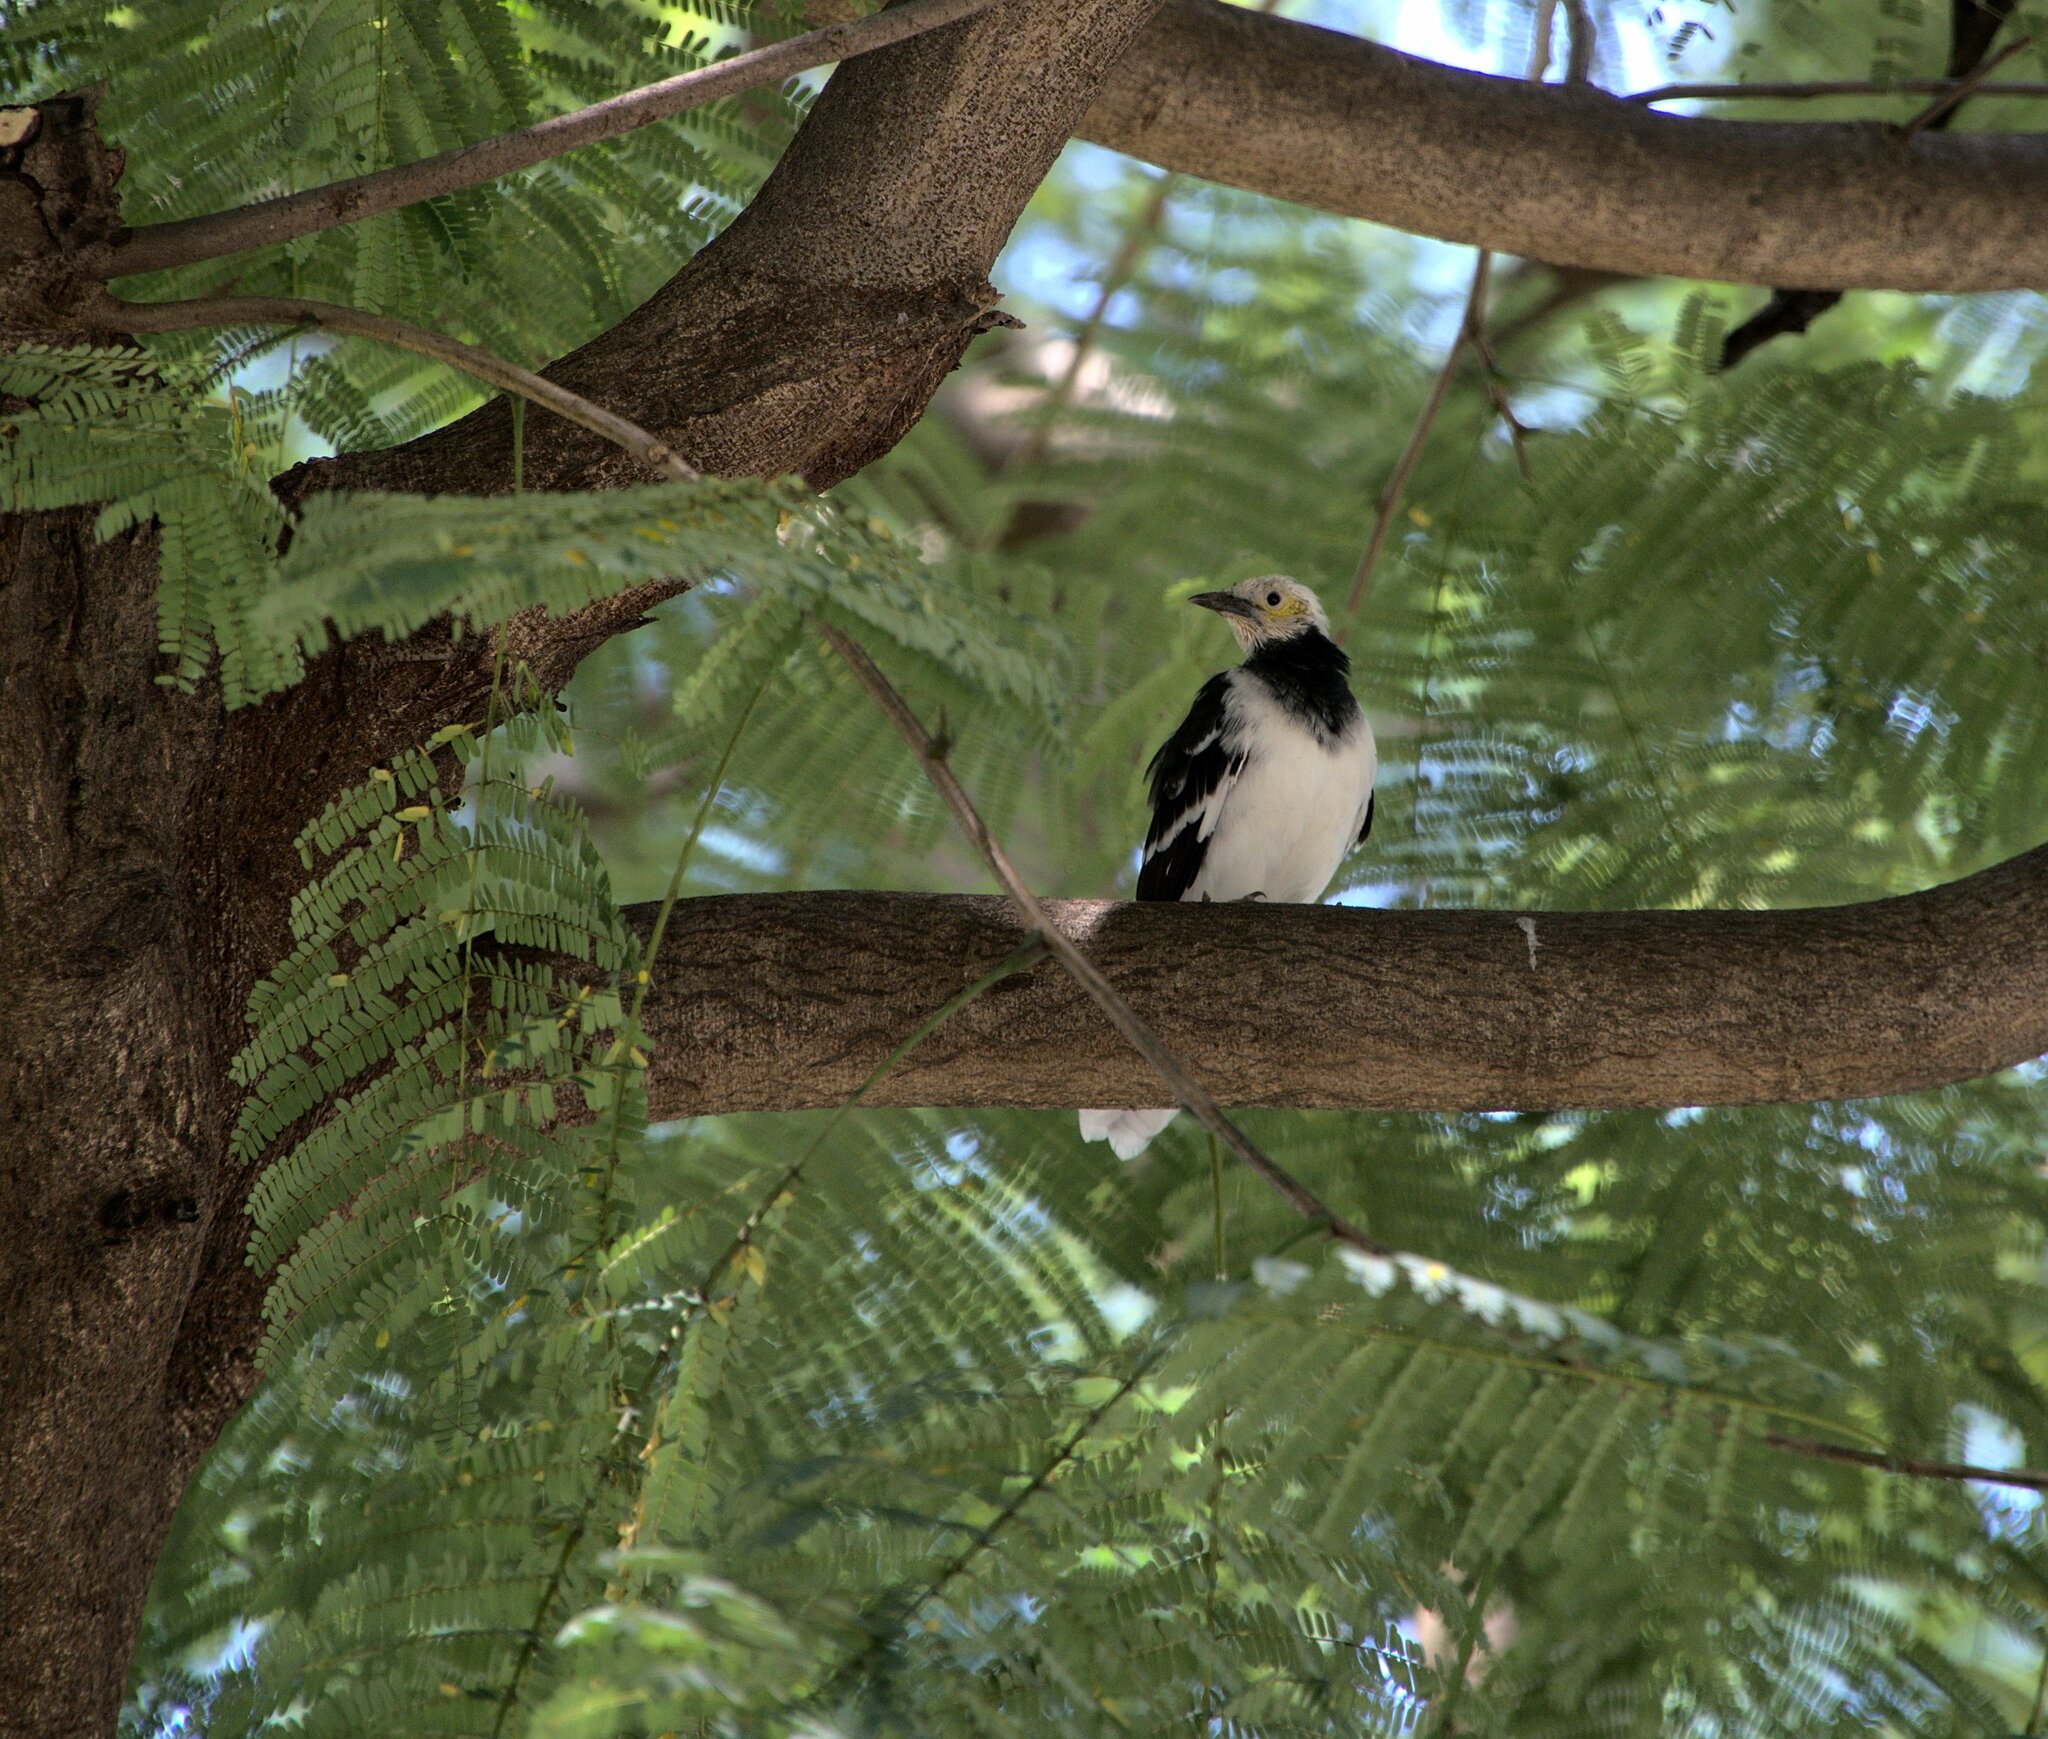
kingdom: Animalia
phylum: Chordata
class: Aves
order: Passeriformes
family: Sturnidae
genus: Gracupica
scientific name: Gracupica nigricollis
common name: Black-collared starling
